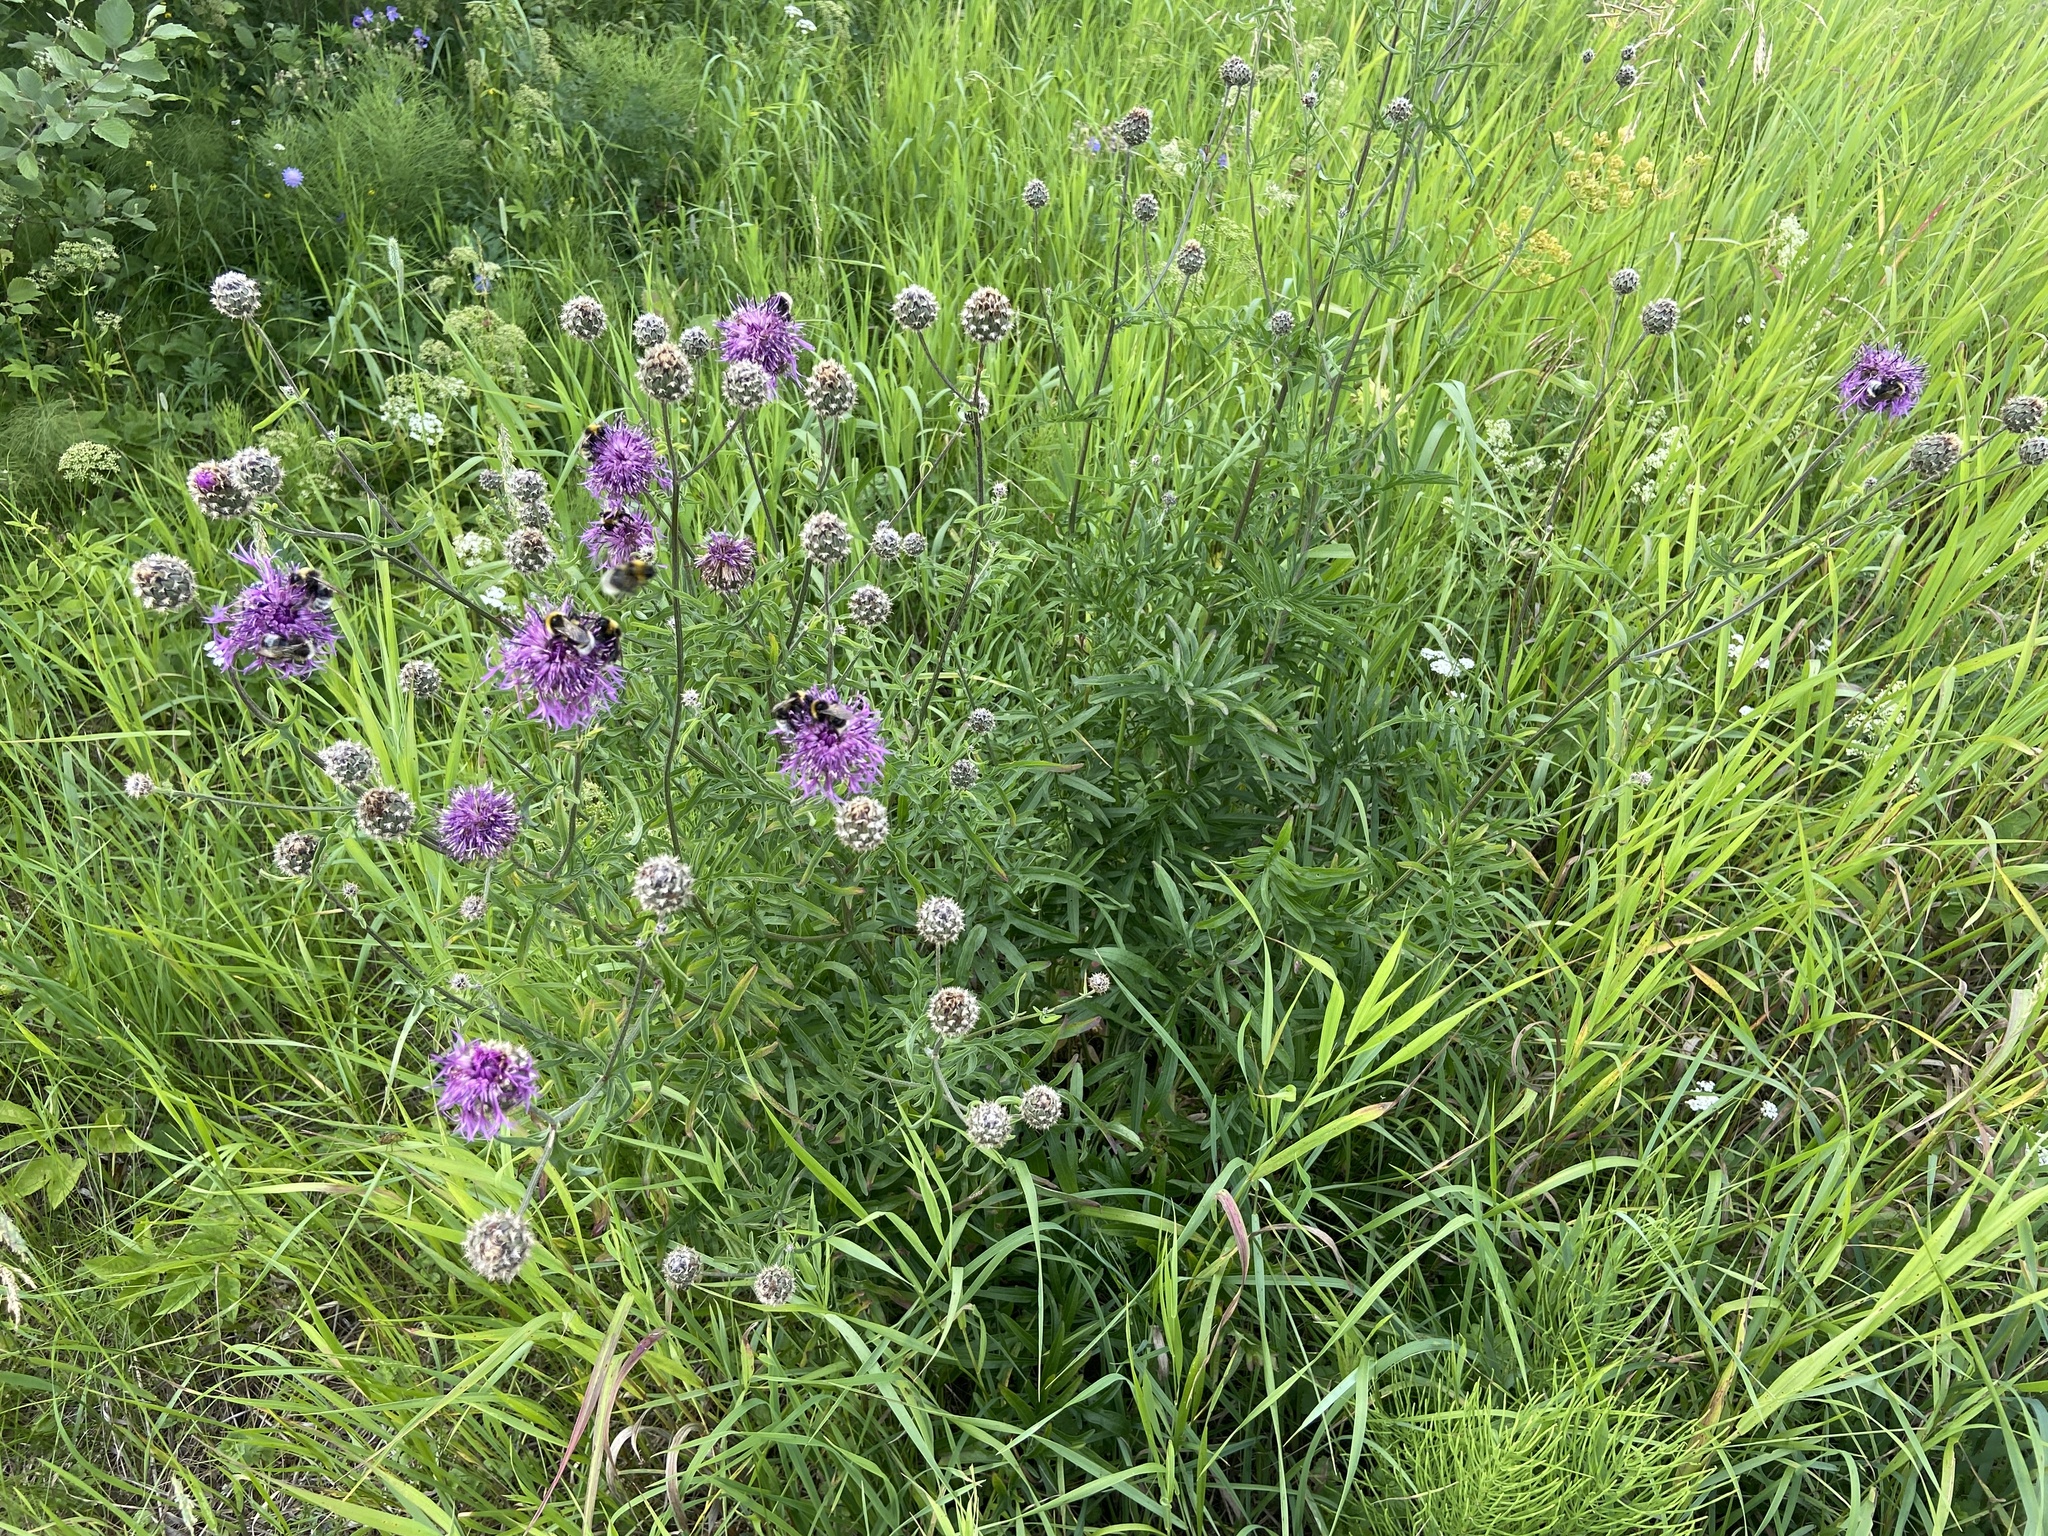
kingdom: Animalia
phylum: Arthropoda
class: Insecta
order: Hymenoptera
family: Apidae
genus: Bombus
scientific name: Bombus bohemicus
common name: Gypsy cuckoo bee
